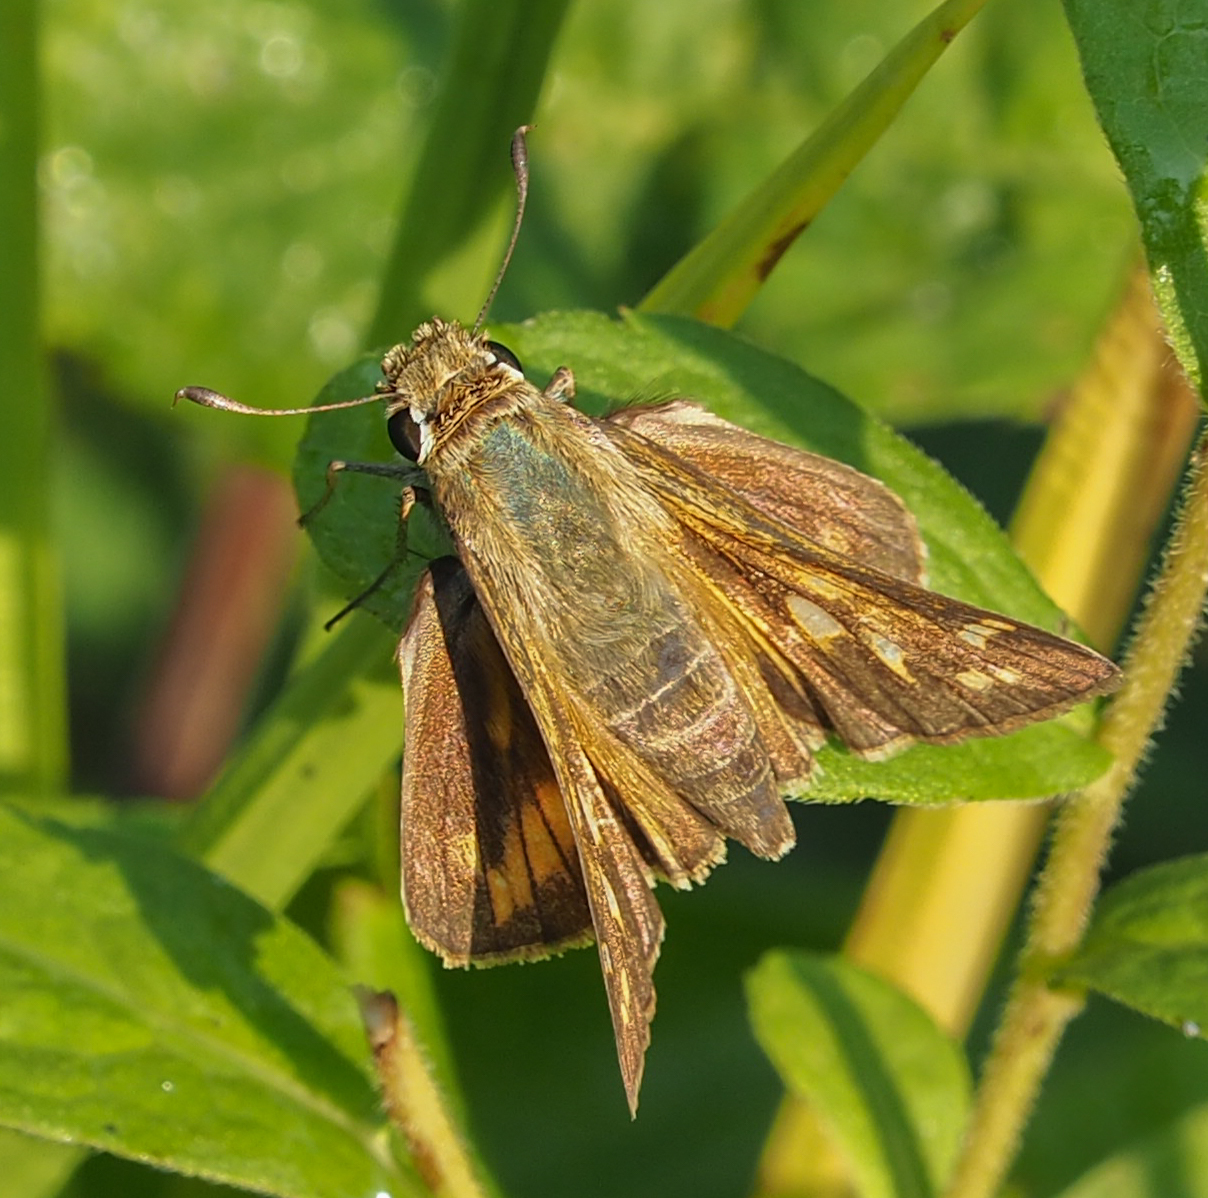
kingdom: Animalia
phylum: Arthropoda
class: Insecta
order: Lepidoptera
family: Hesperiidae
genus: Atalopedes
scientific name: Atalopedes
